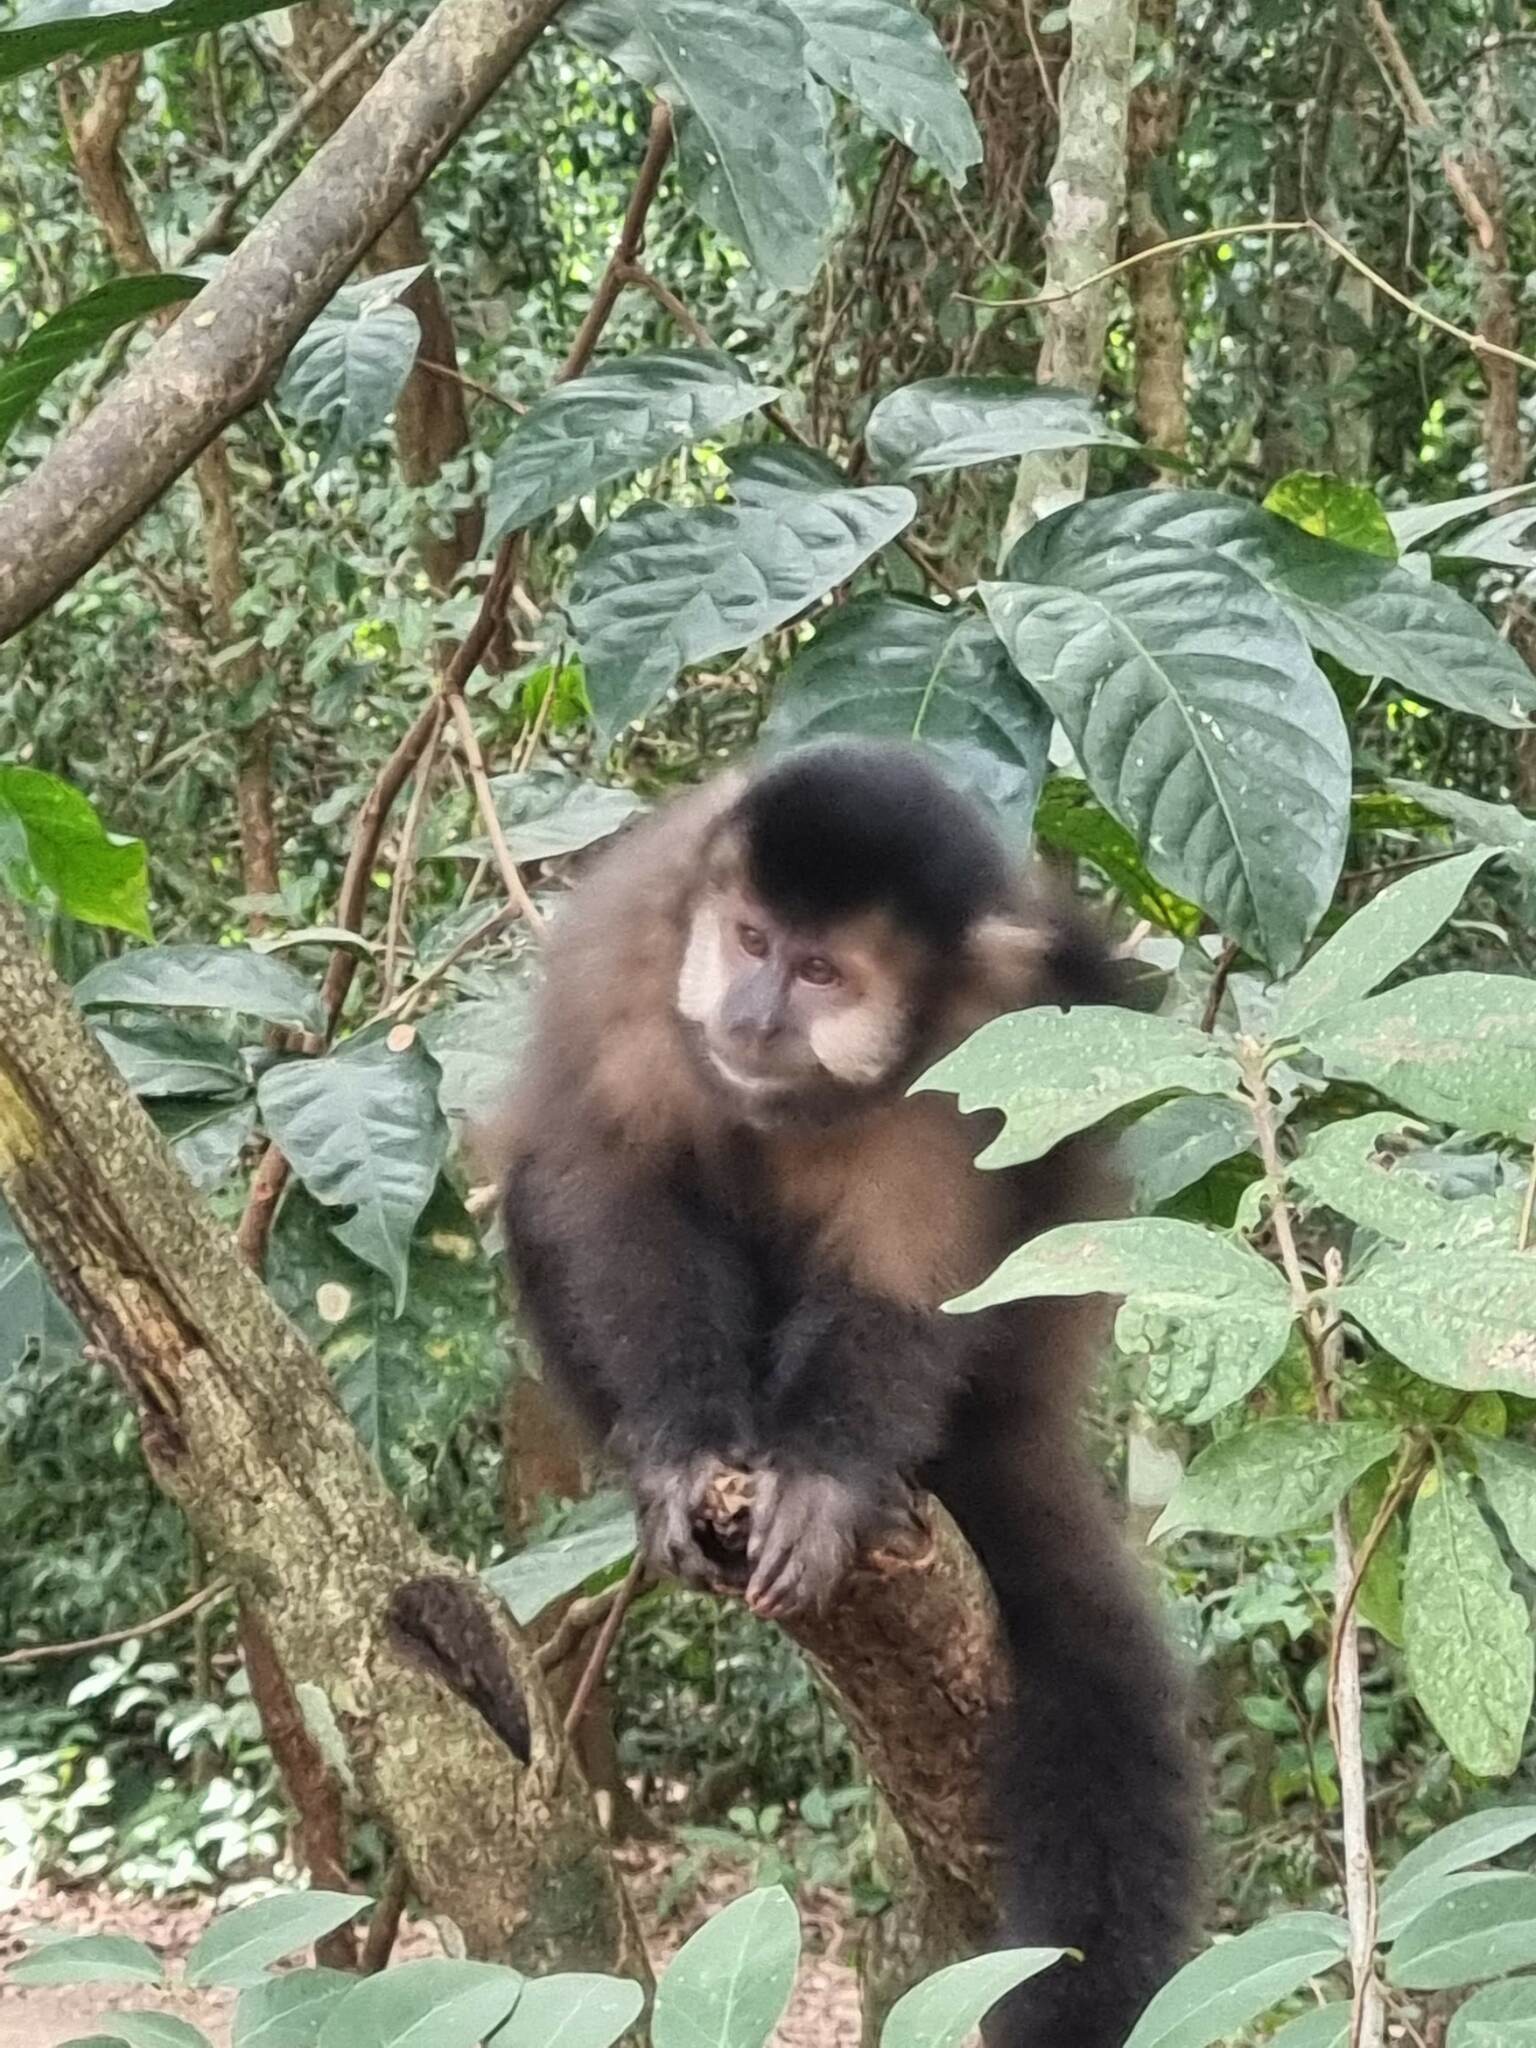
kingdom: Animalia
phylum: Chordata
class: Mammalia
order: Primates
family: Cebidae
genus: Sapajus
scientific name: Sapajus nigritus
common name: Black capuchin
